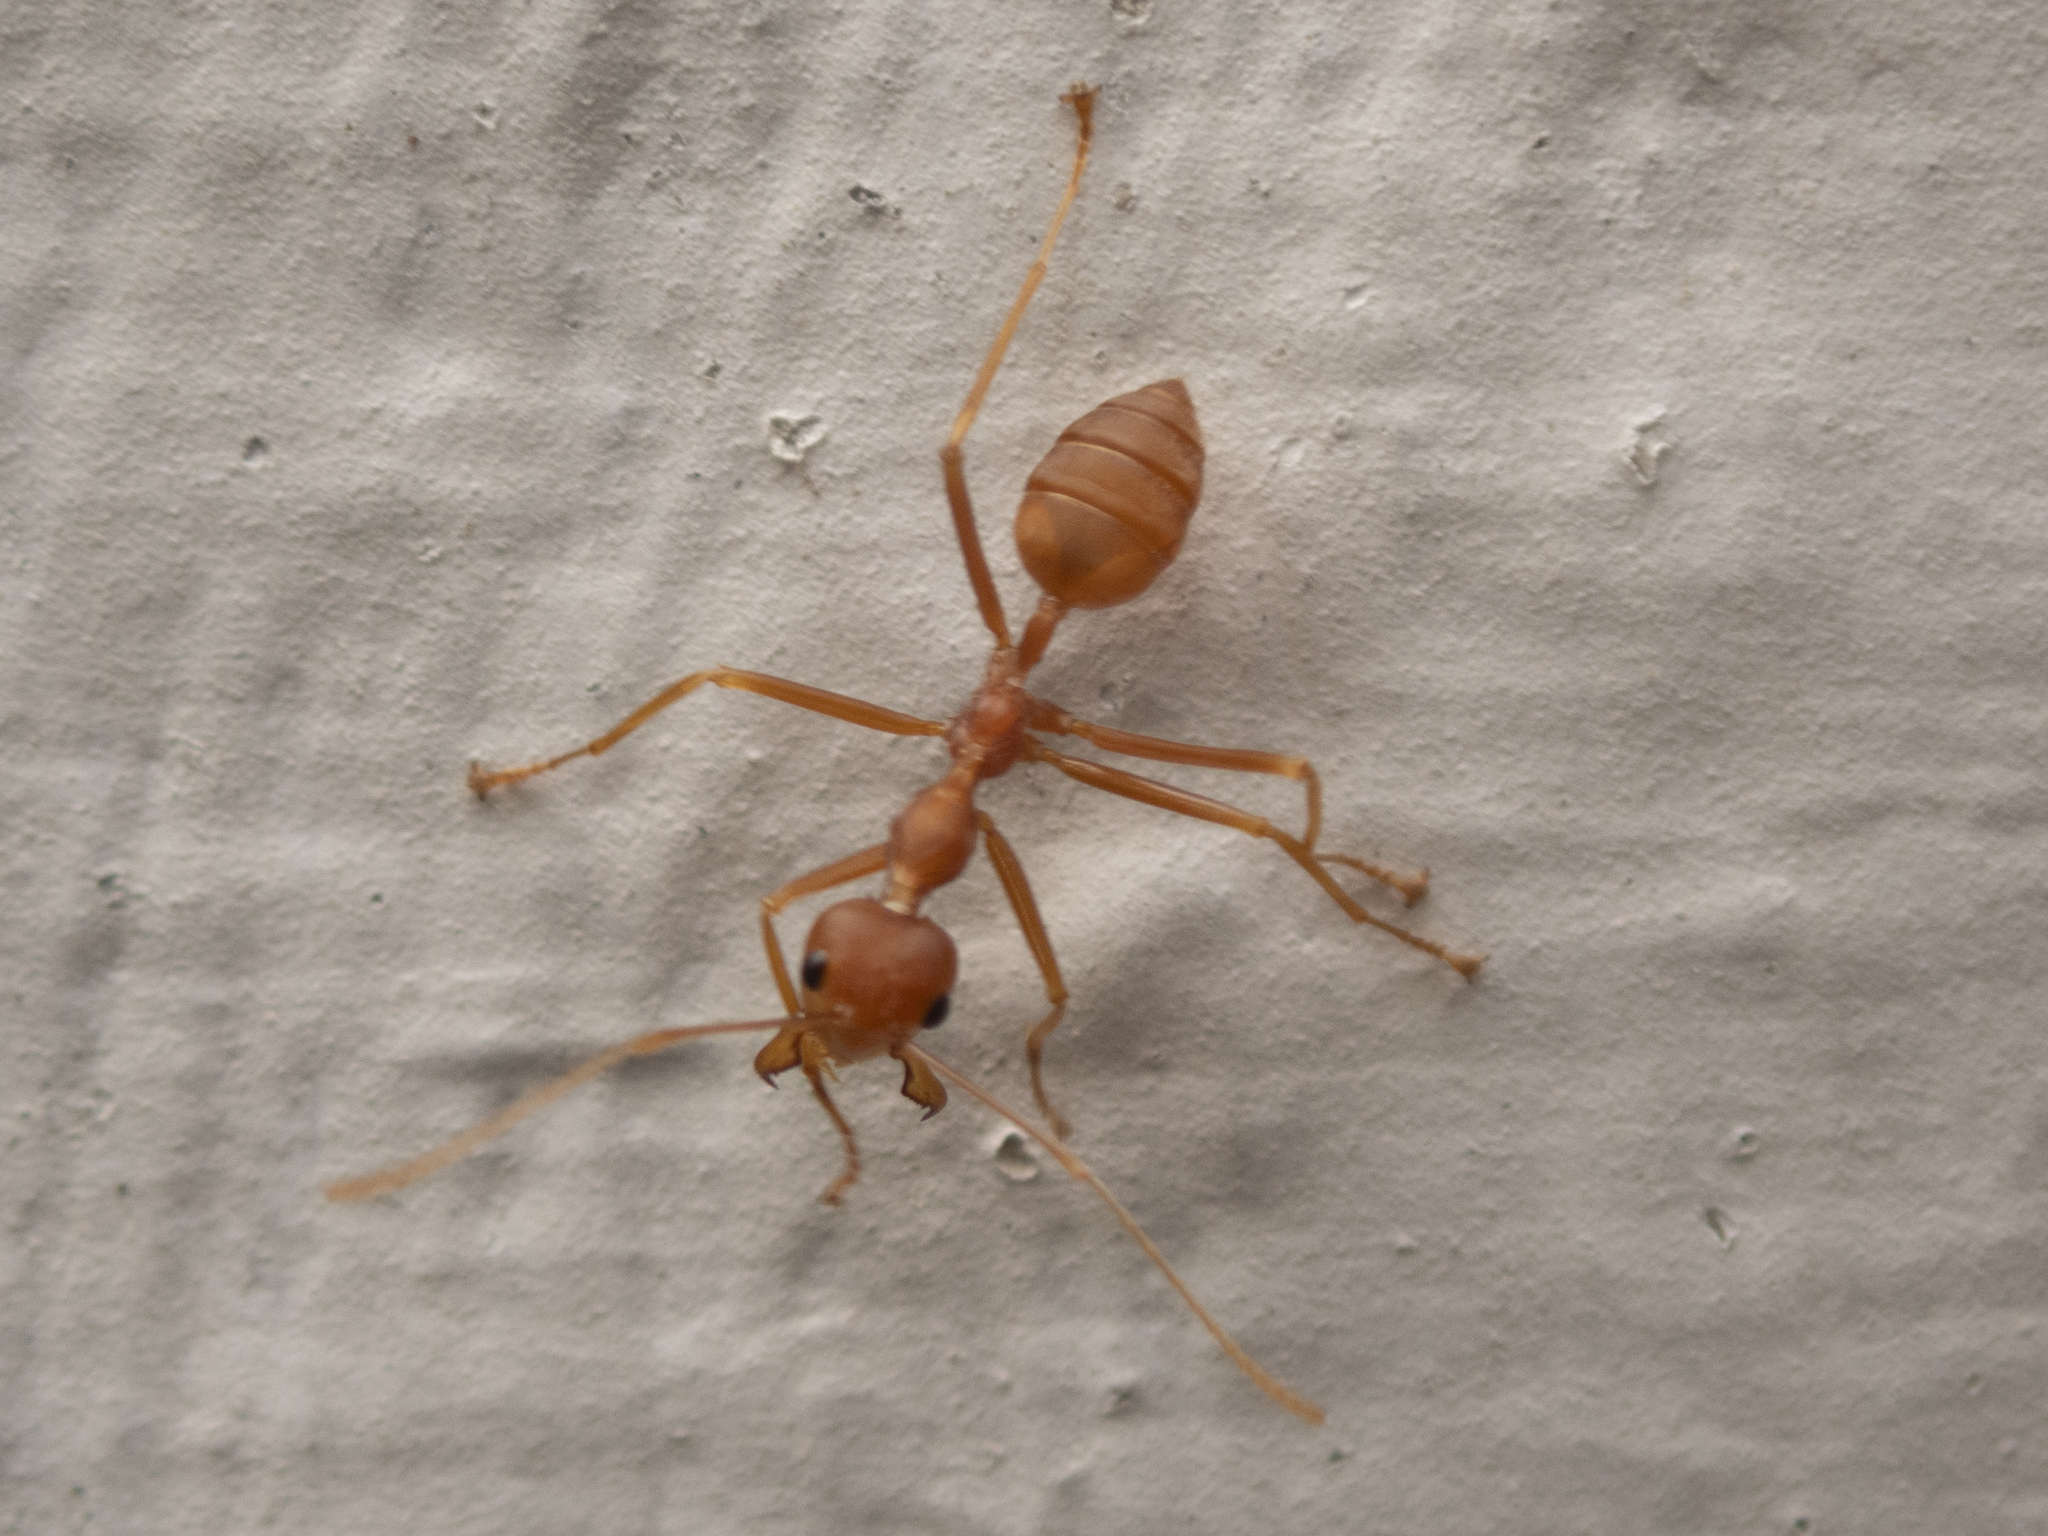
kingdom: Animalia
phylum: Arthropoda
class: Insecta
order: Hymenoptera
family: Formicidae
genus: Oecophylla
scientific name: Oecophylla smaragdina
